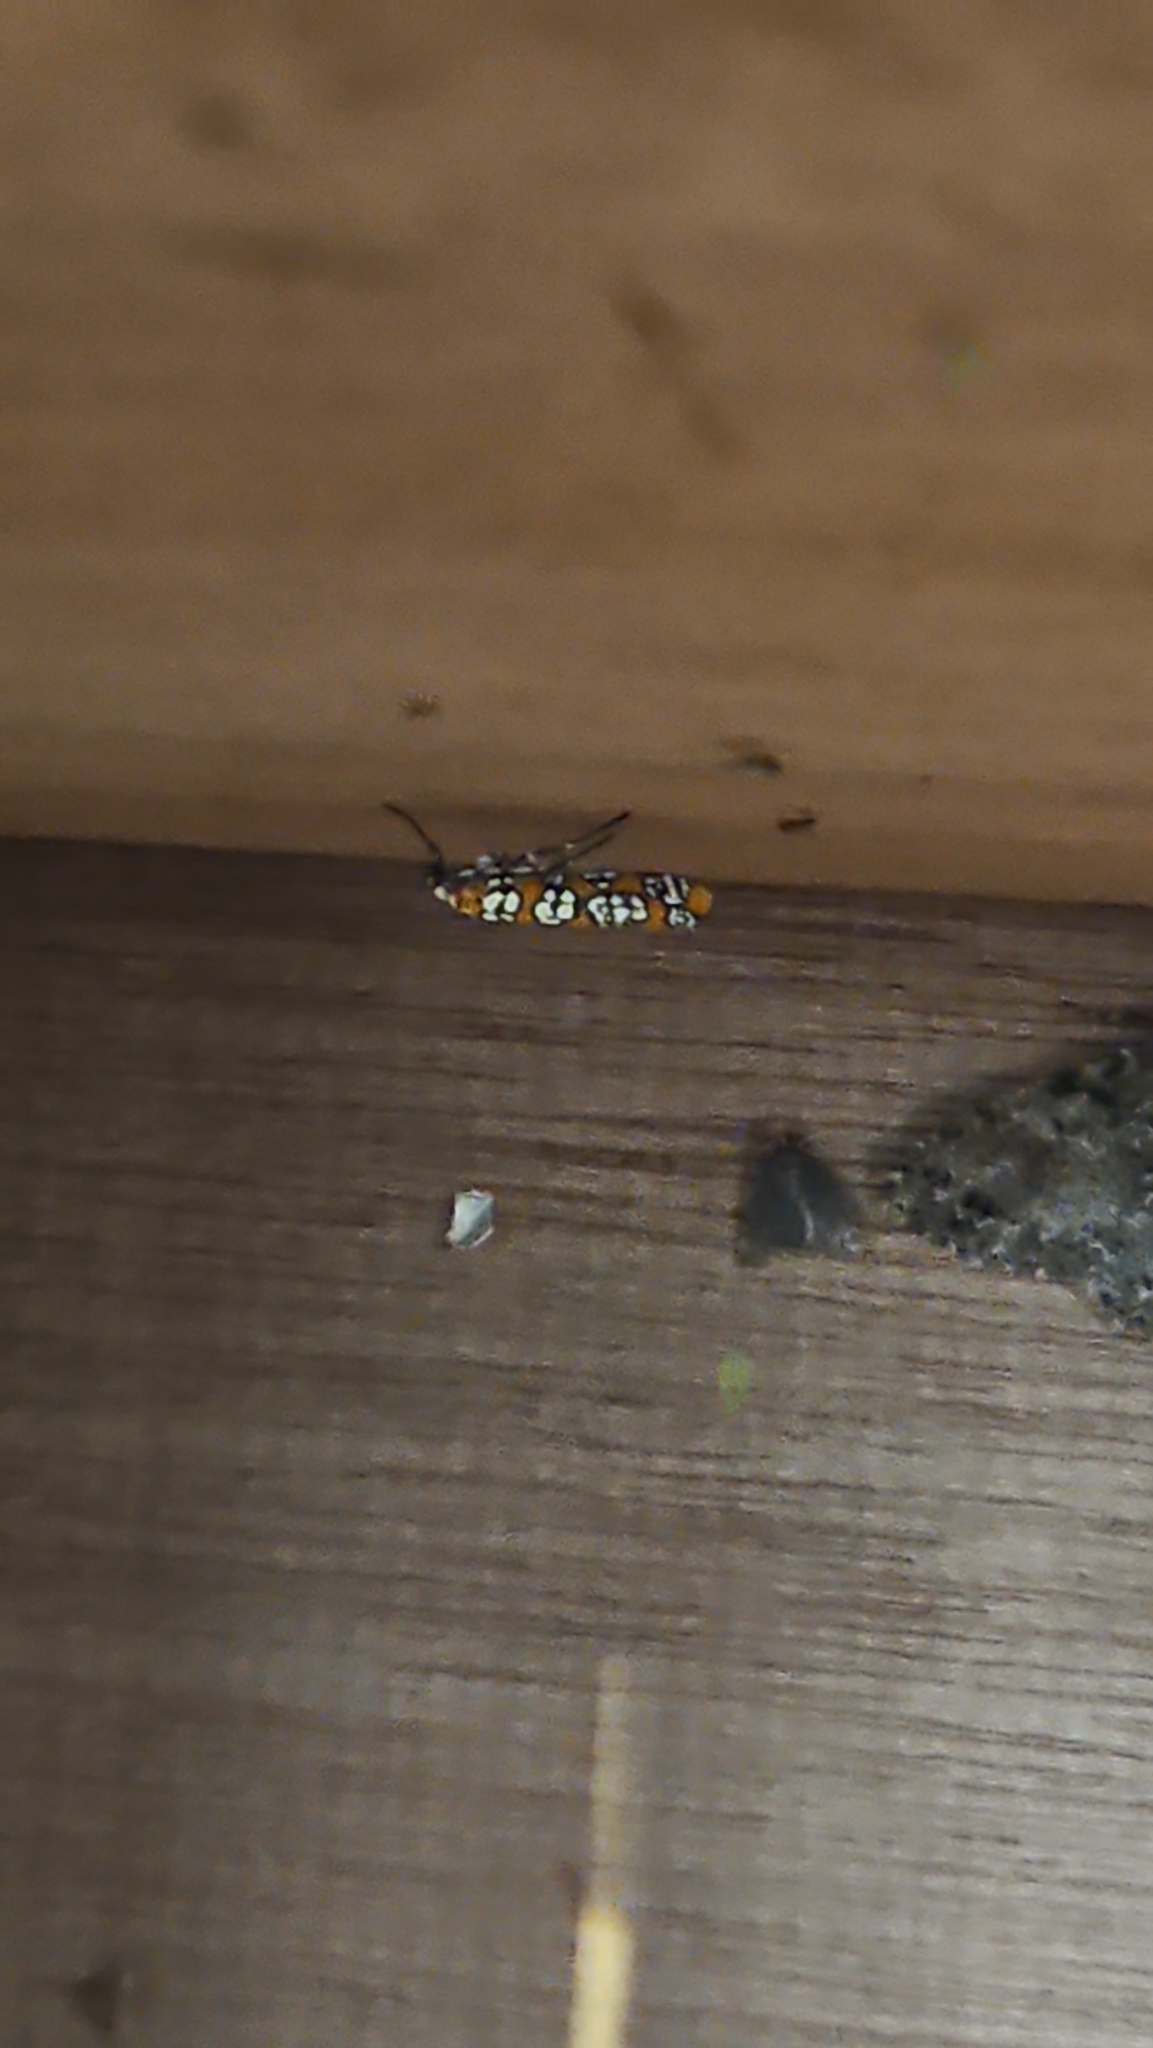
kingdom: Animalia
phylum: Arthropoda
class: Insecta
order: Lepidoptera
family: Attevidae
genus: Atteva
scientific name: Atteva punctella
